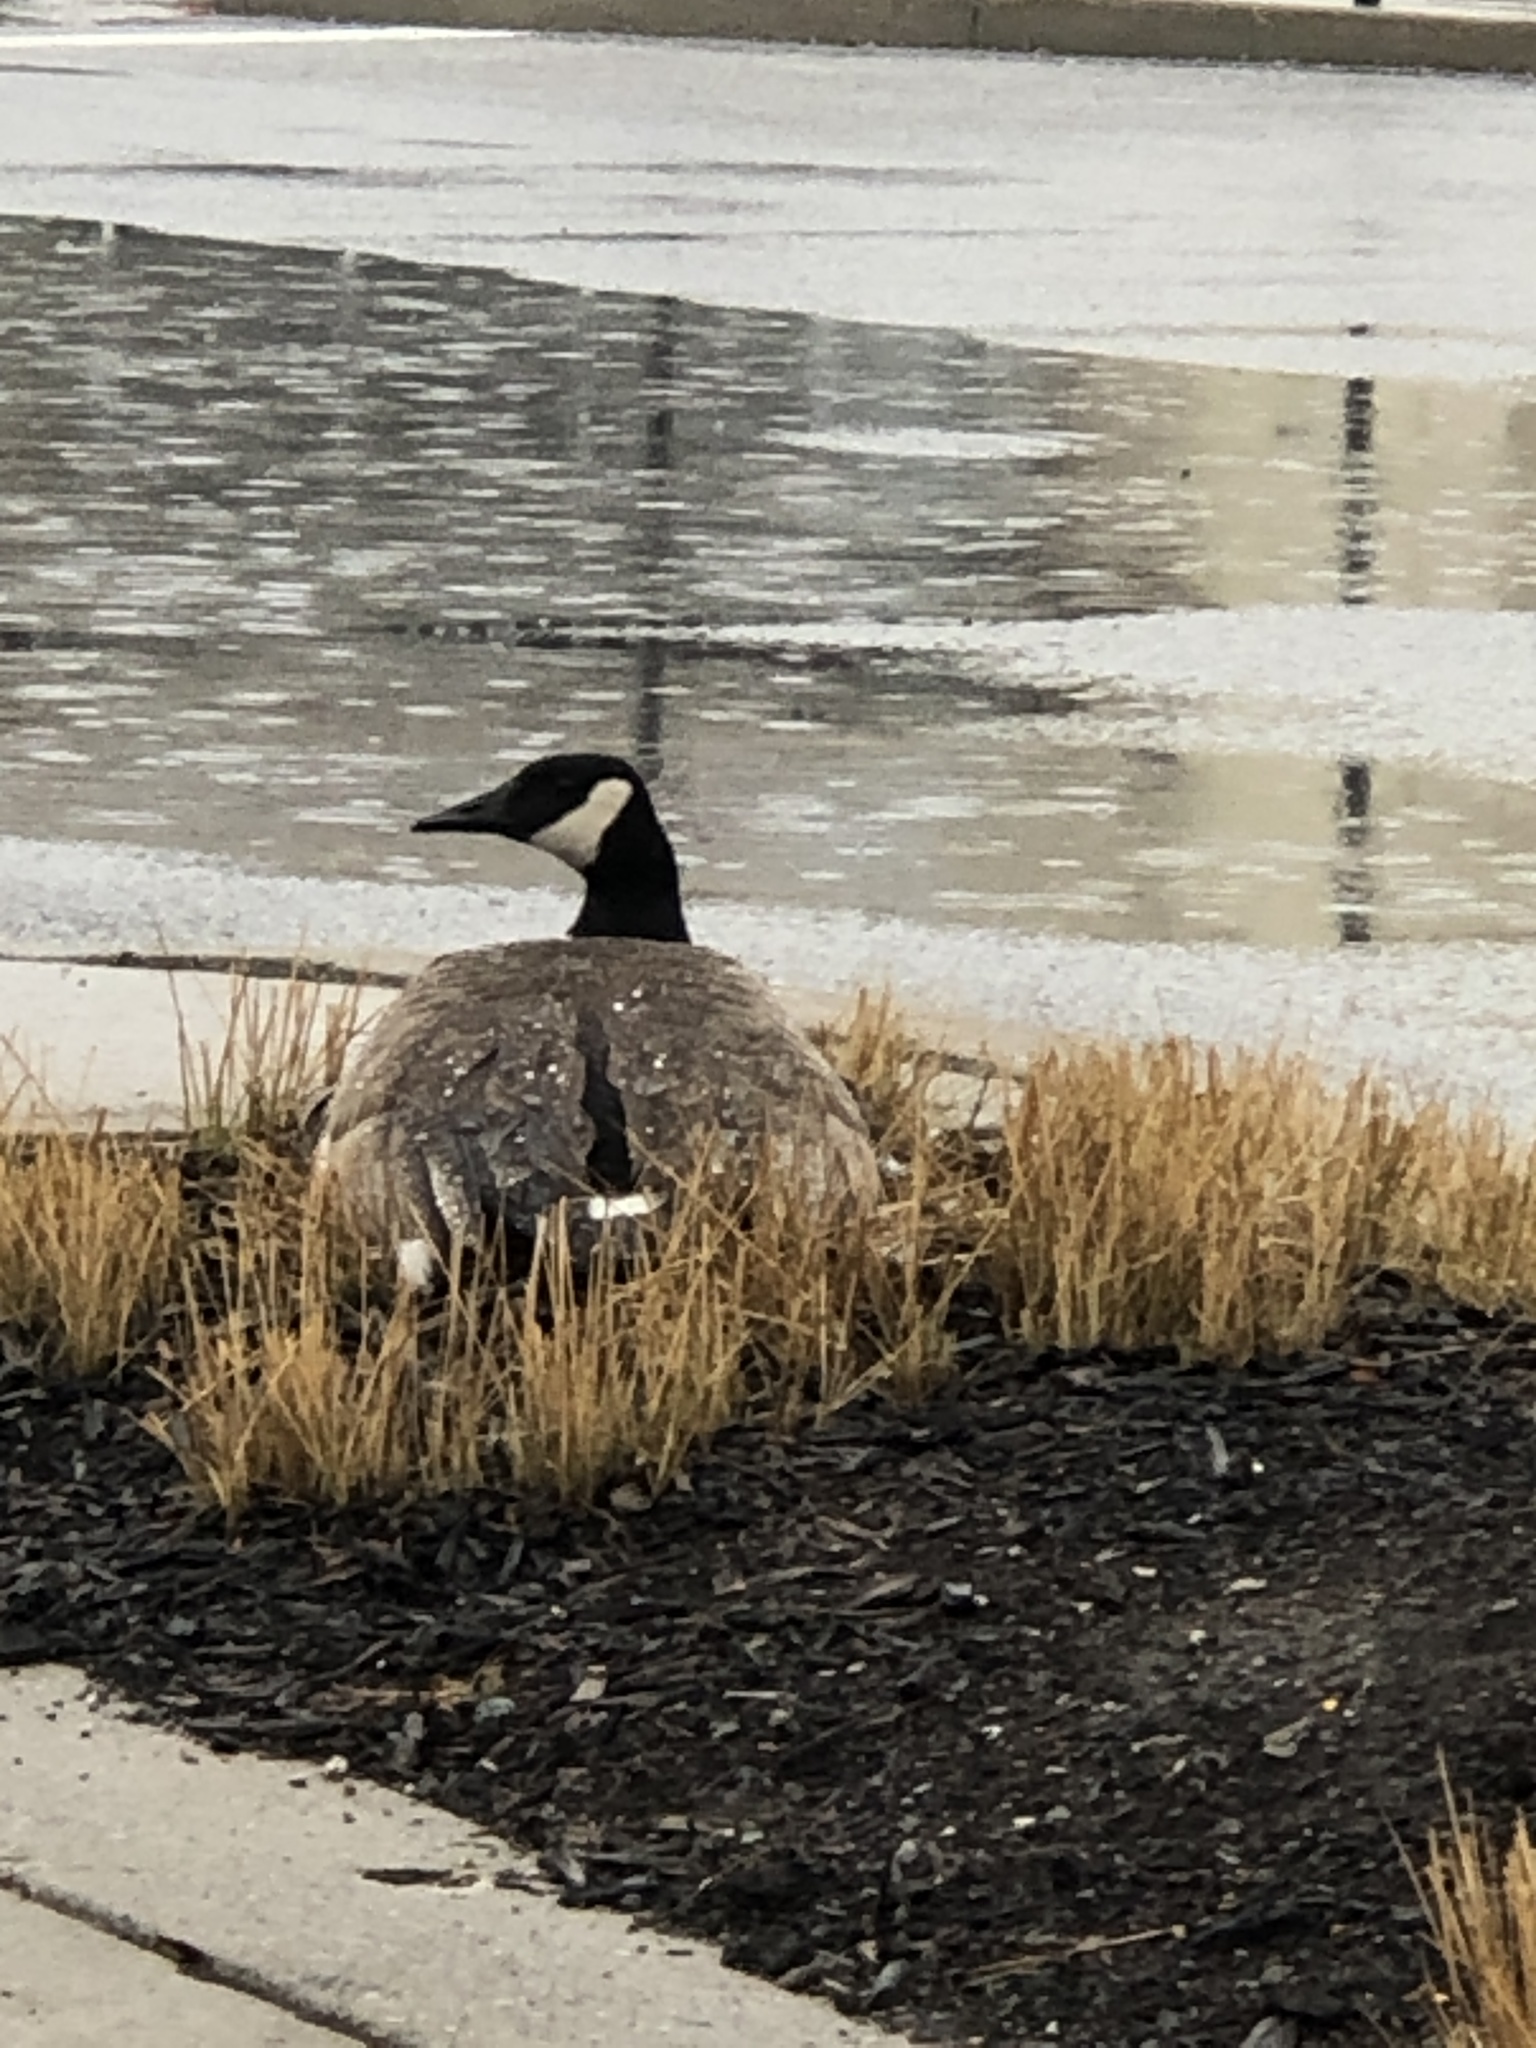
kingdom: Animalia
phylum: Chordata
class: Aves
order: Anseriformes
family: Anatidae
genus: Branta
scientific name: Branta canadensis
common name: Canada goose
